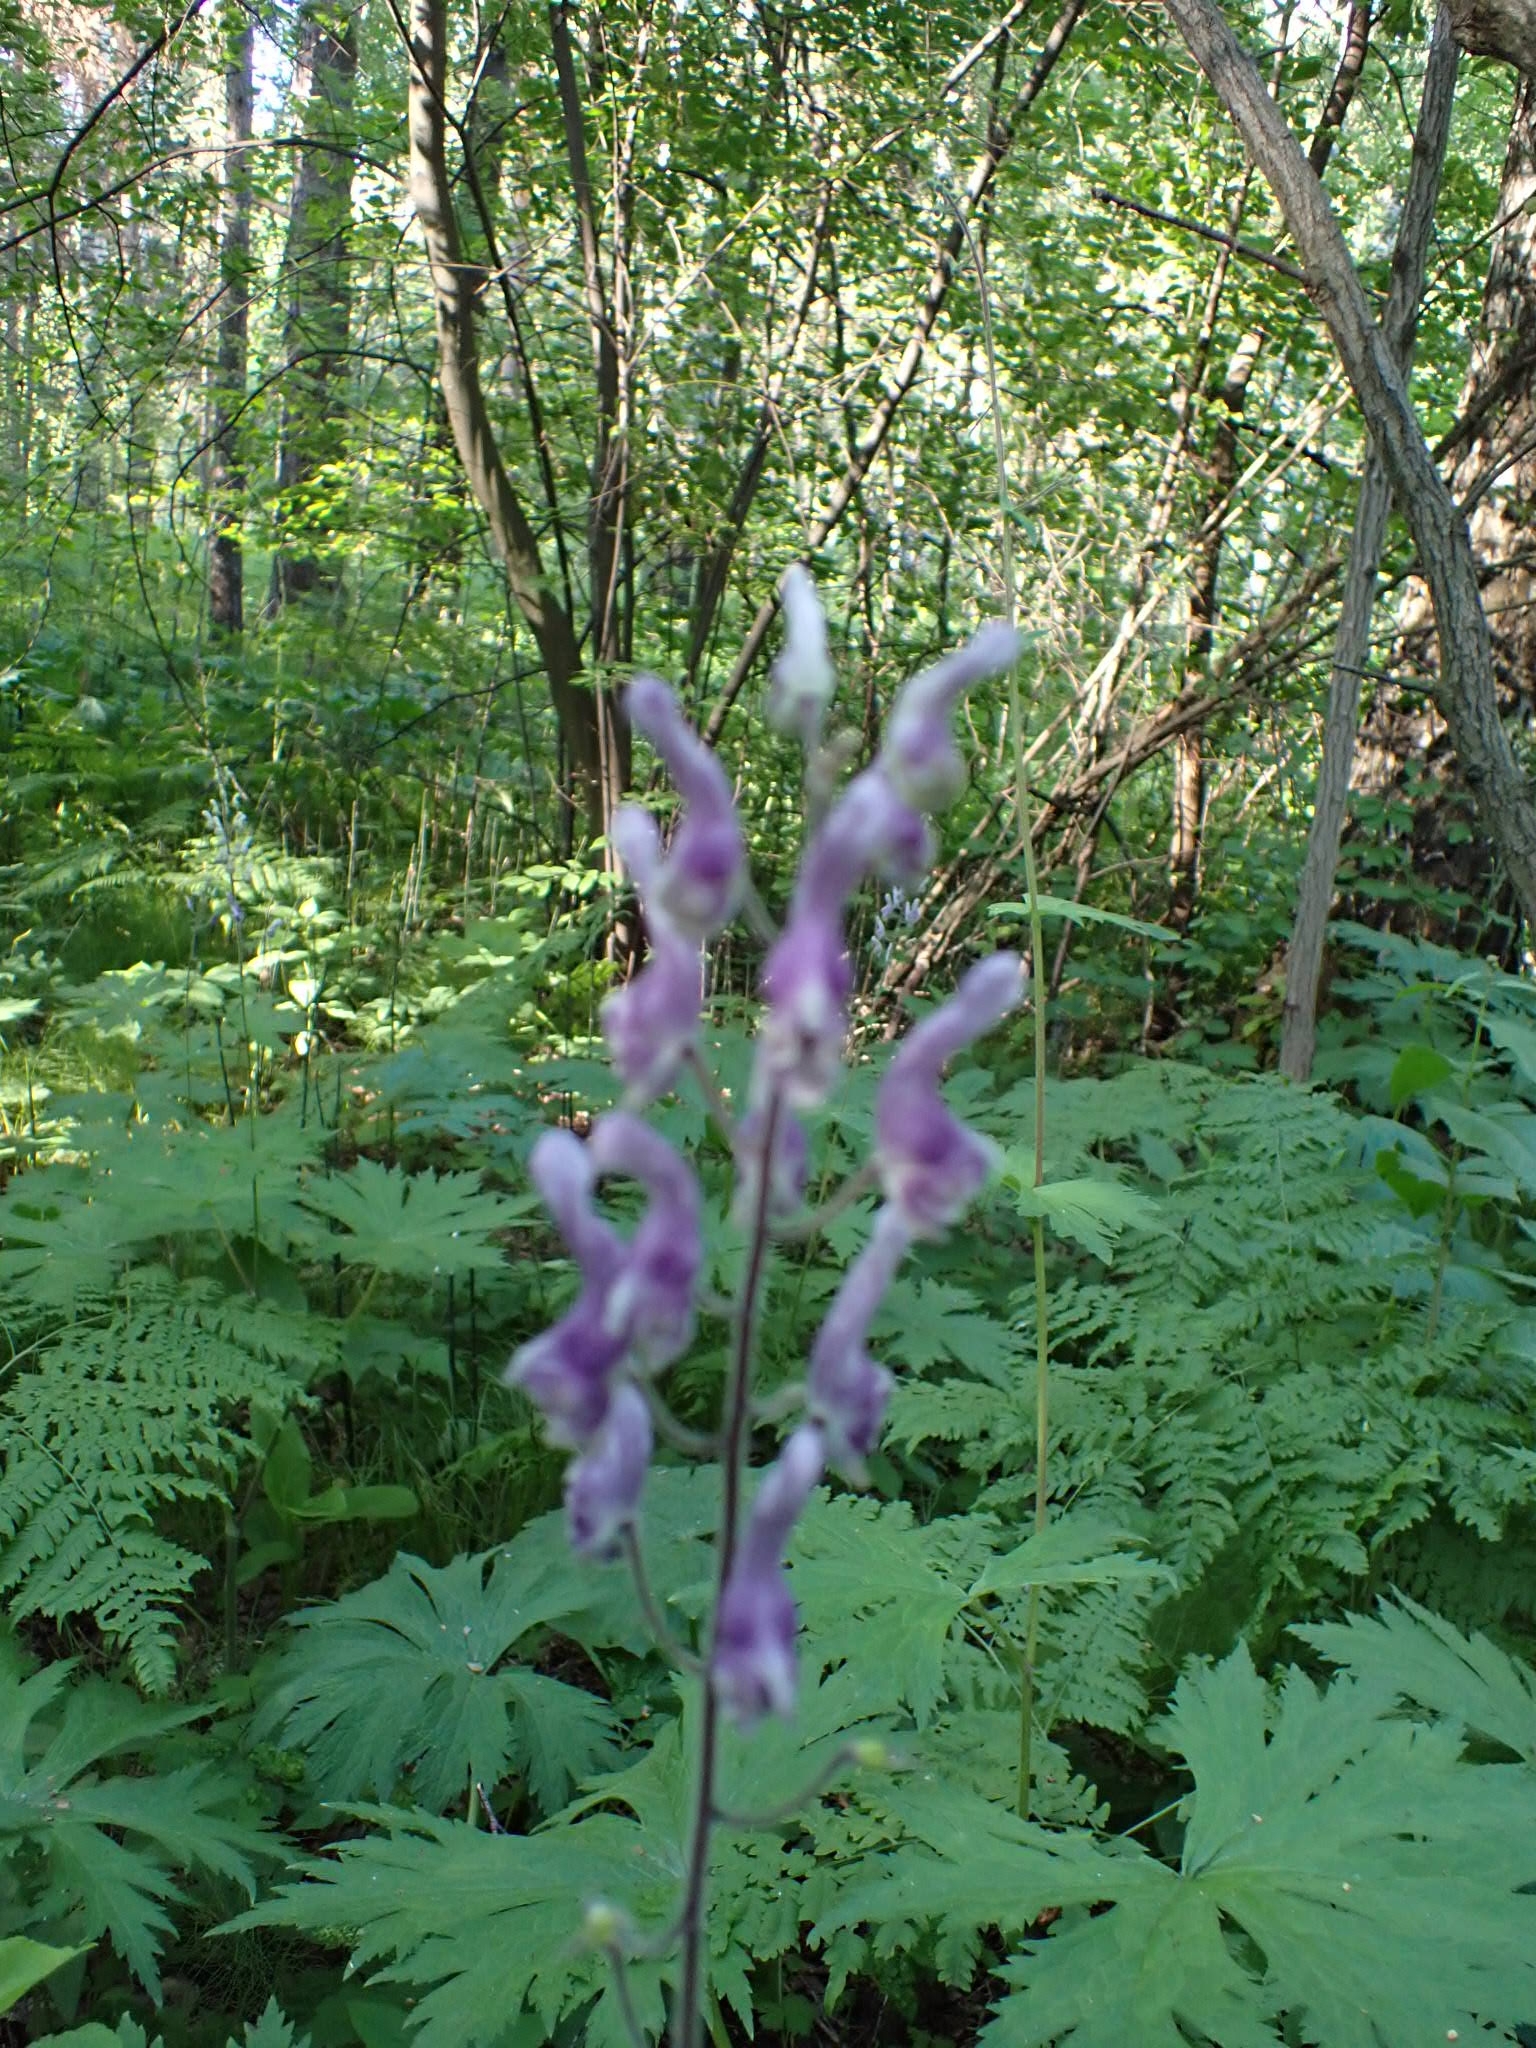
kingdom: Plantae
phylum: Tracheophyta
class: Magnoliopsida
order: Ranunculales
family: Ranunculaceae
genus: Aconitum
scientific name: Aconitum septentrionale
